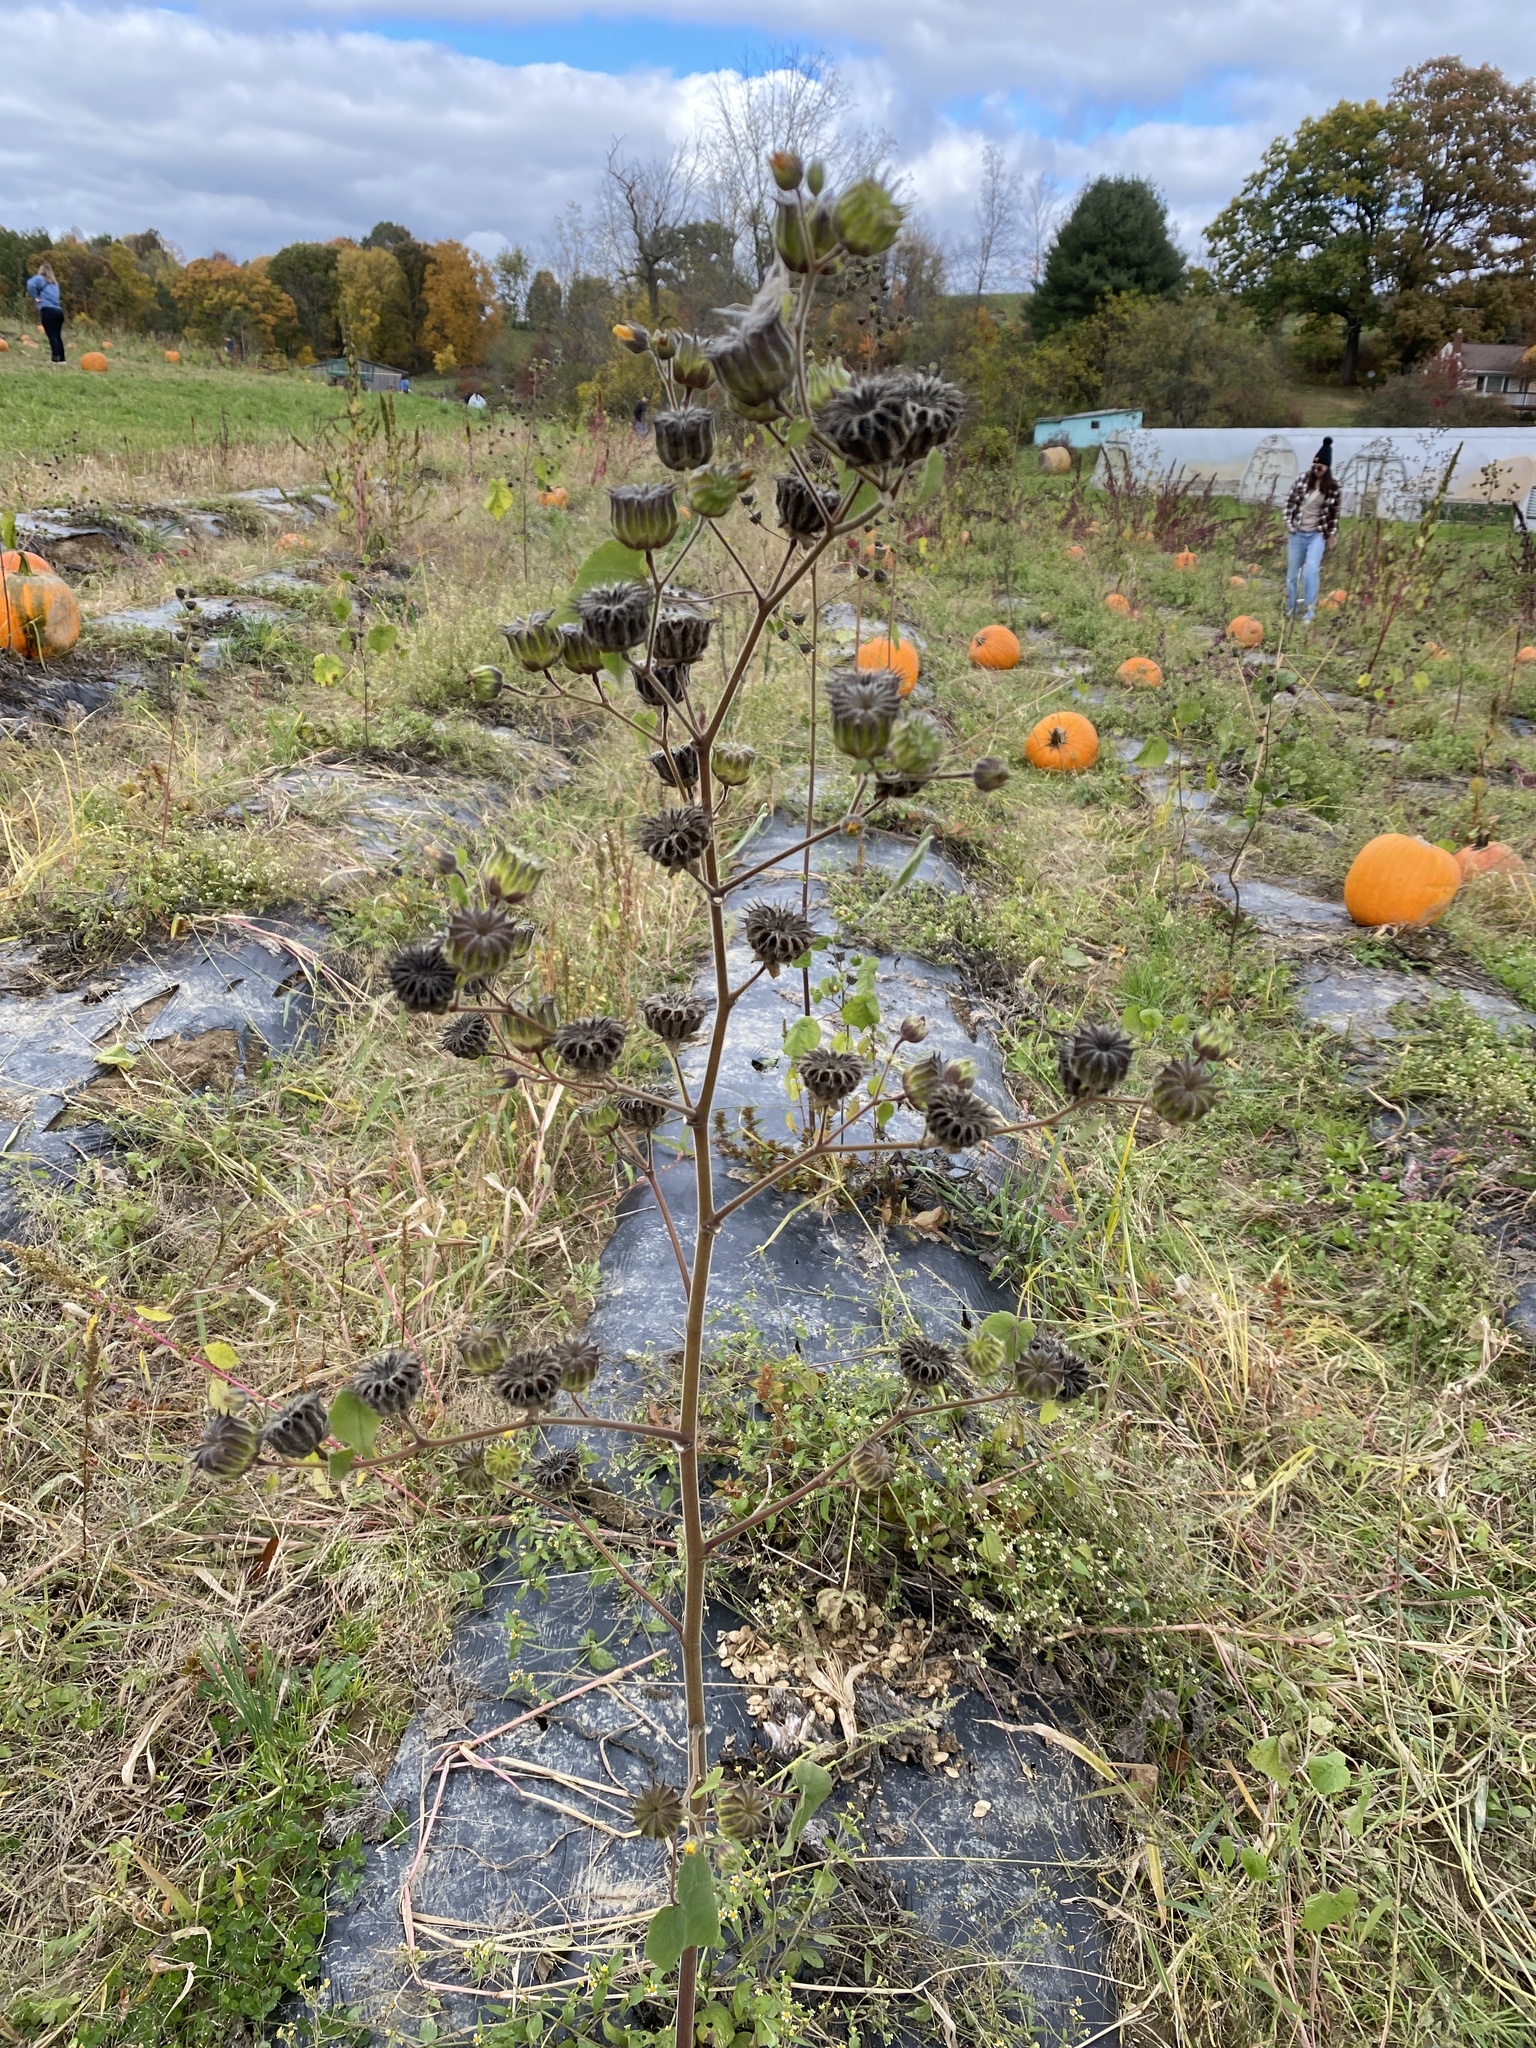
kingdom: Plantae
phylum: Tracheophyta
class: Magnoliopsida
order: Malvales
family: Malvaceae
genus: Abutilon
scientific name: Abutilon theophrasti
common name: Velvetleaf
